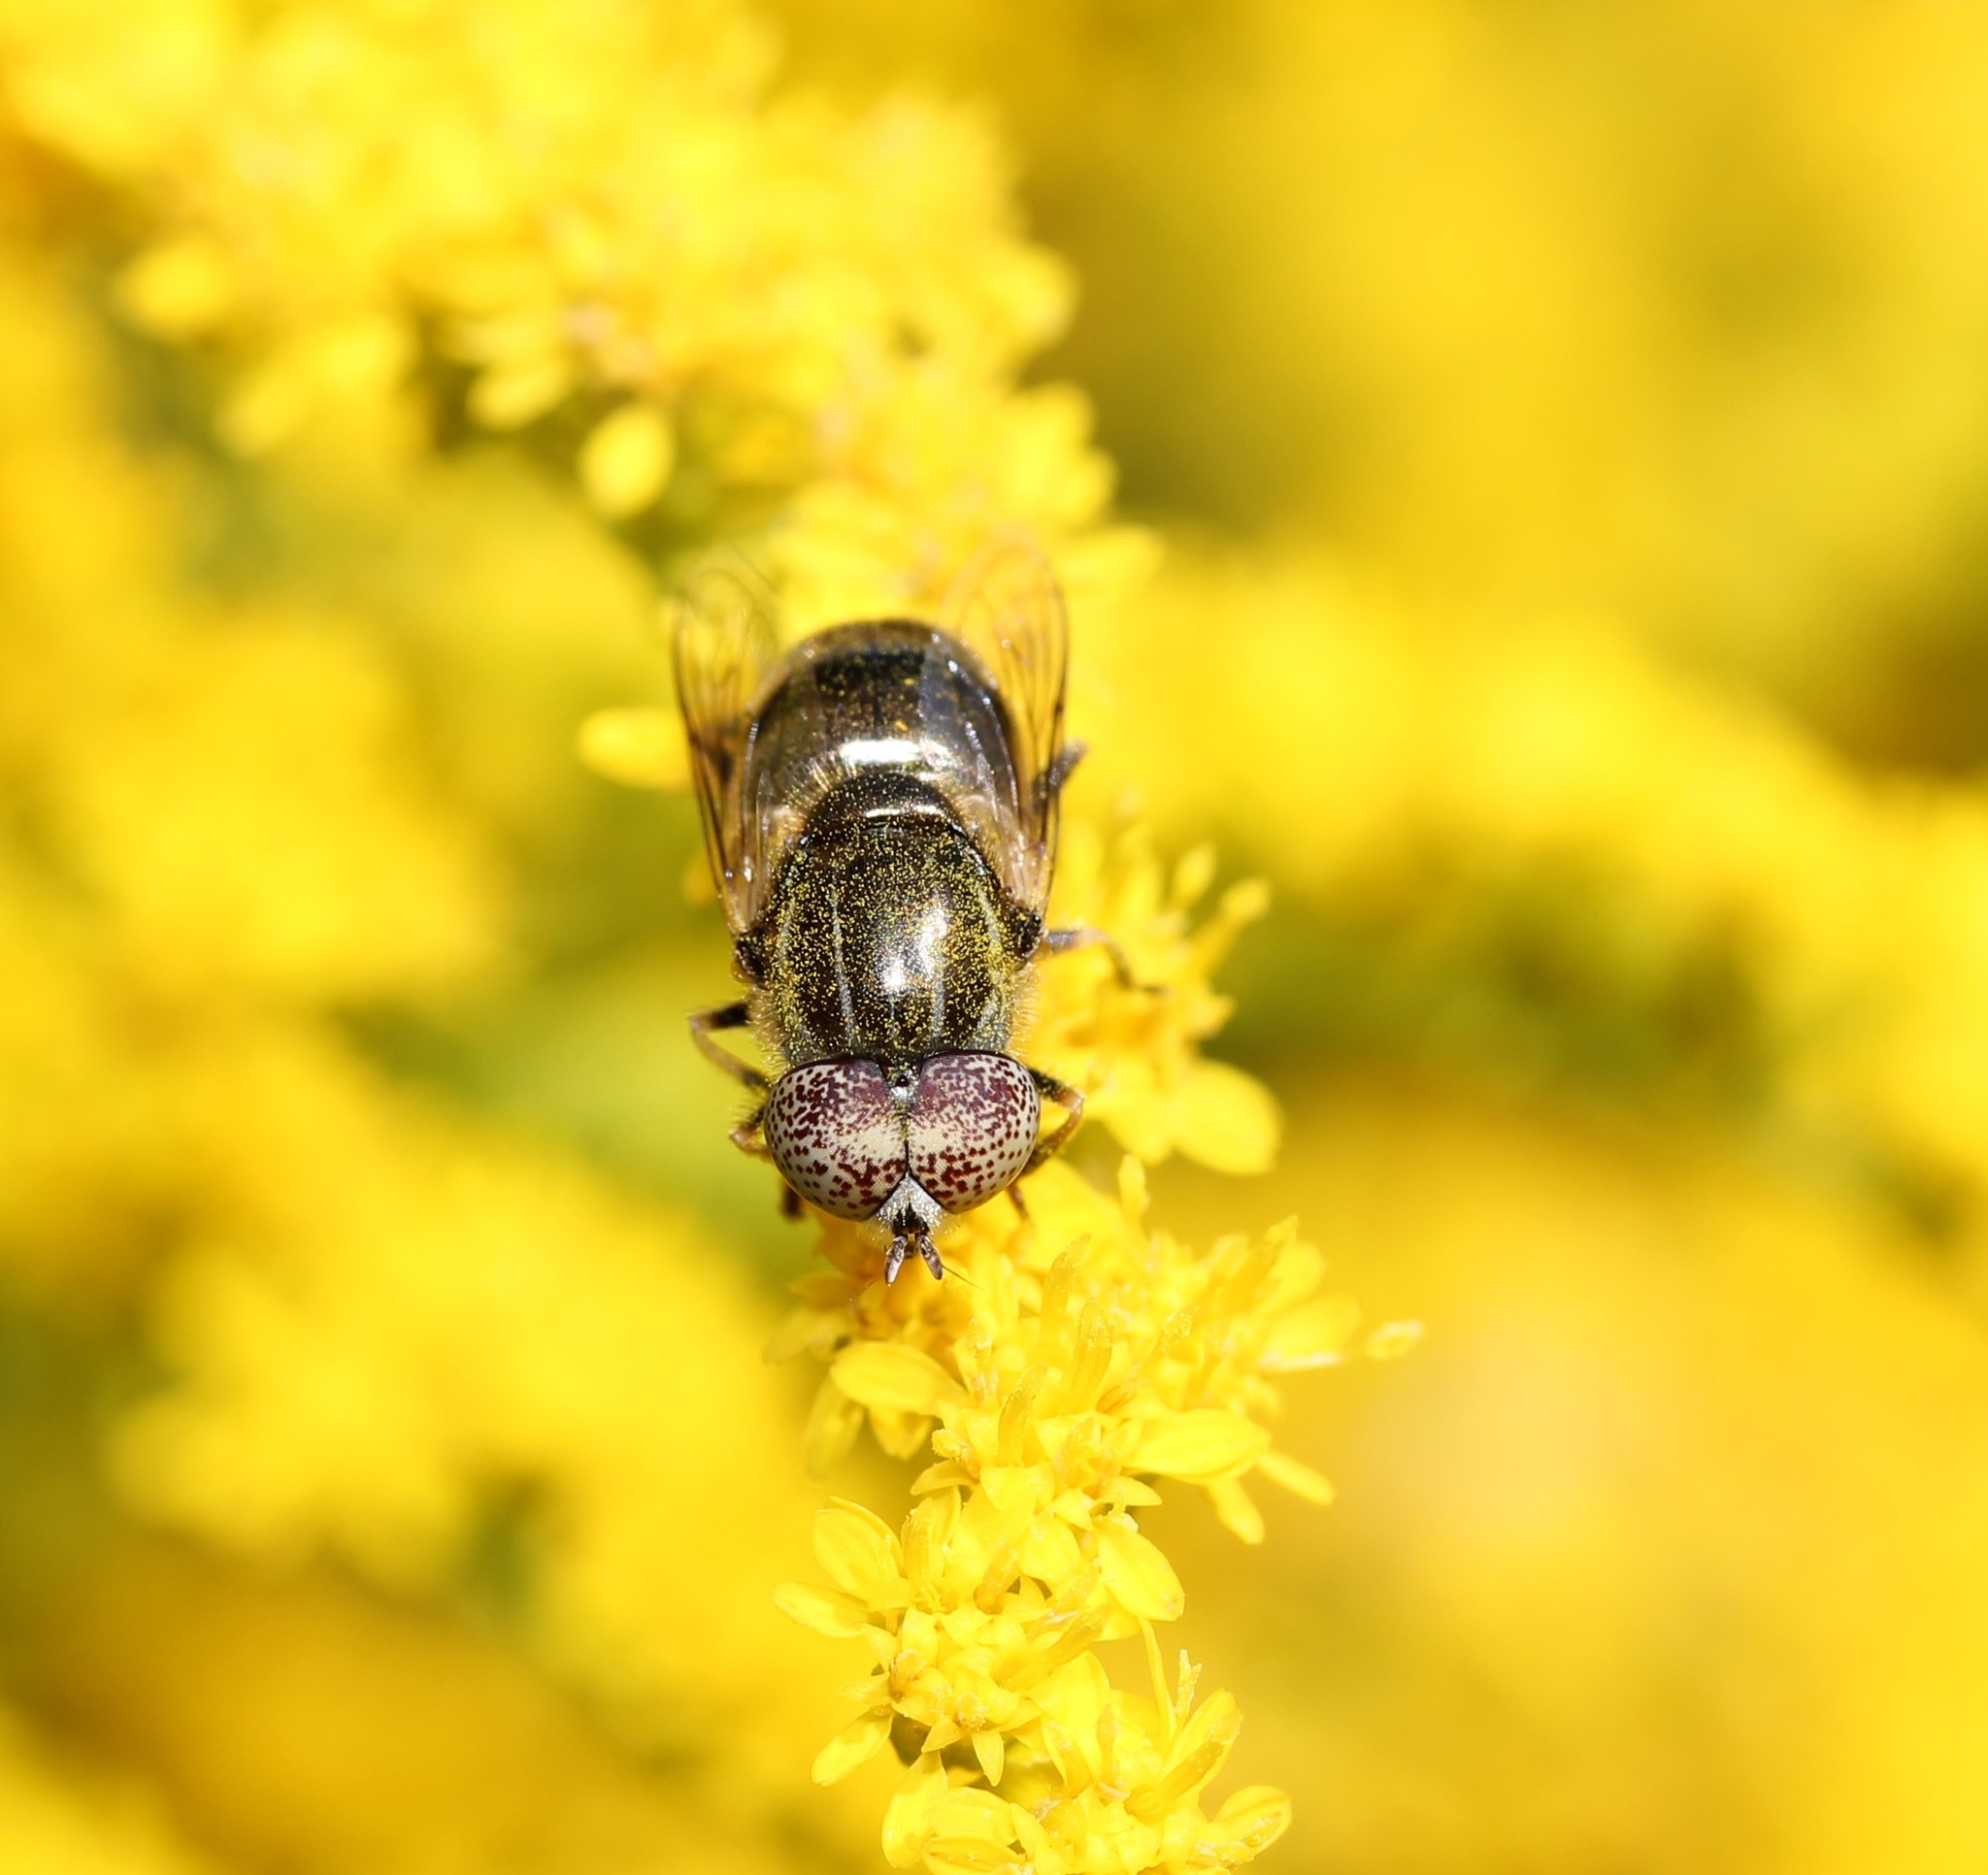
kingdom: Animalia
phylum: Arthropoda
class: Insecta
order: Diptera
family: Syrphidae
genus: Eristalinus
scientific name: Eristalinus aeneus
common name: Syrphid fly
